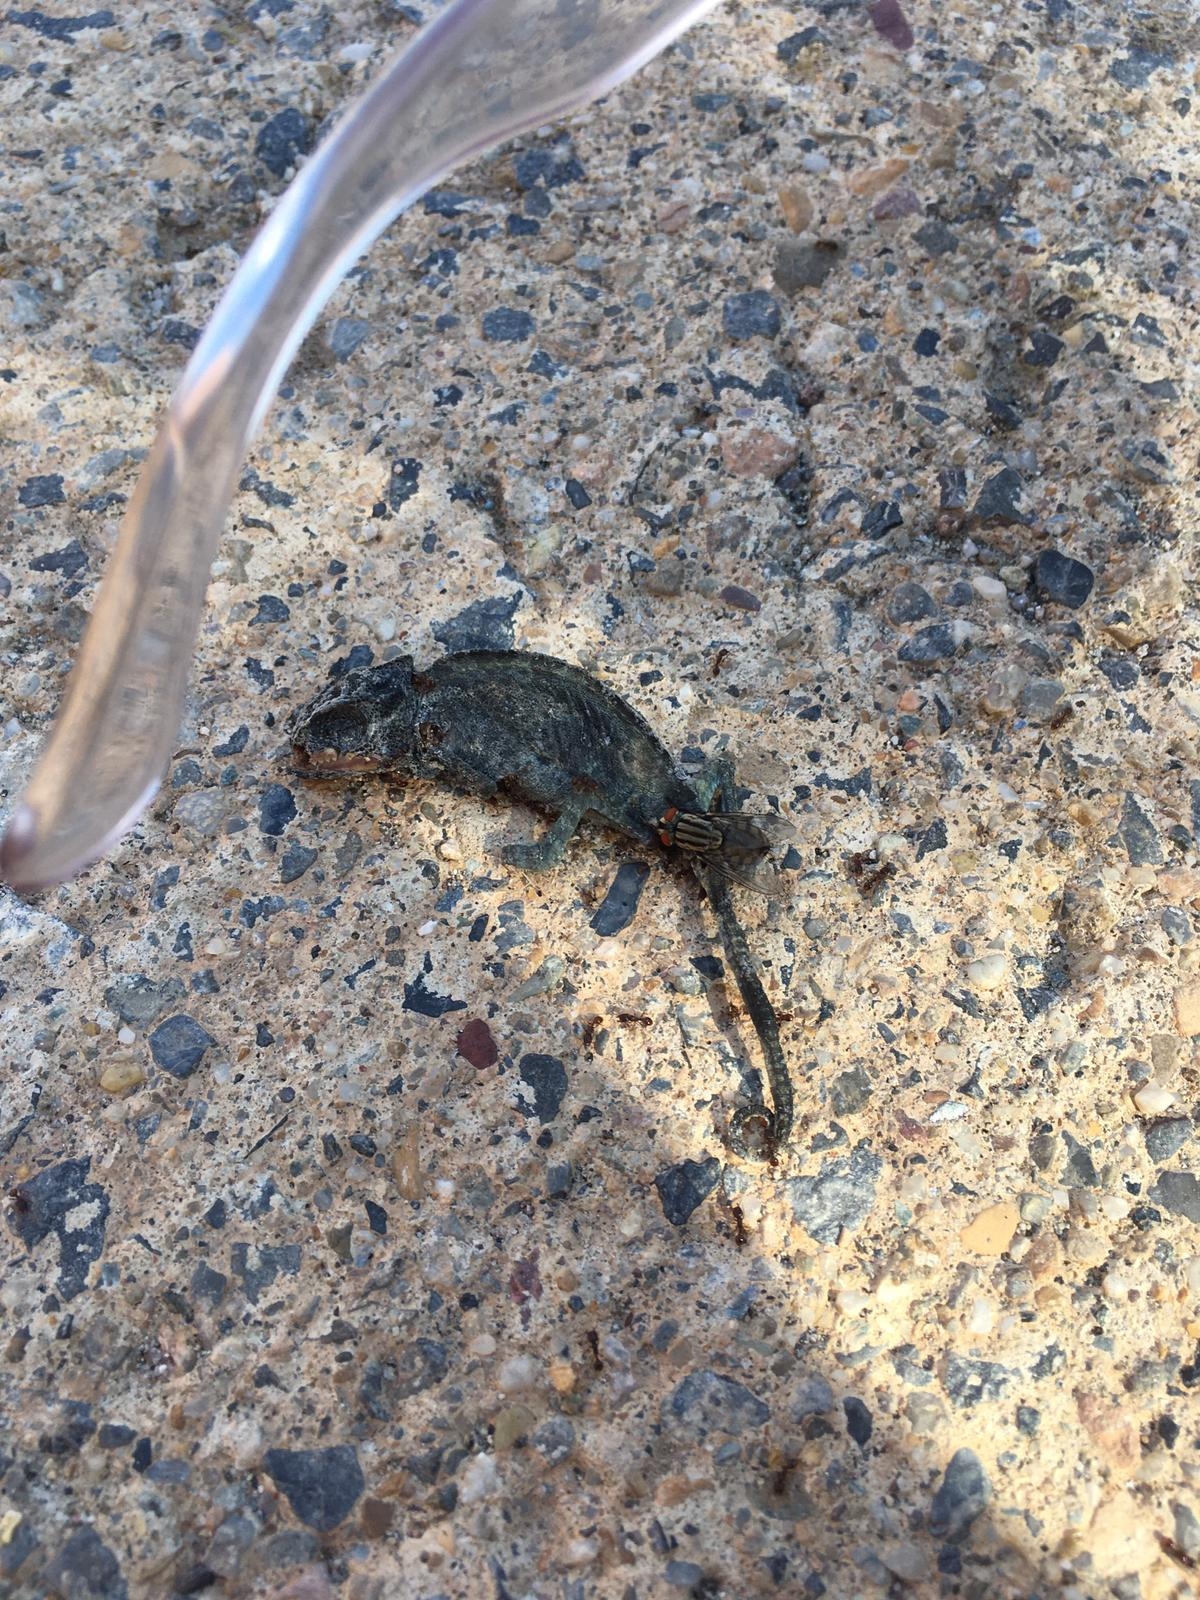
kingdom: Animalia
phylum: Chordata
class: Squamata
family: Chamaeleonidae
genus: Chamaeleo
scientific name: Chamaeleo chamaeleon
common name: Mediterranean chameleon
